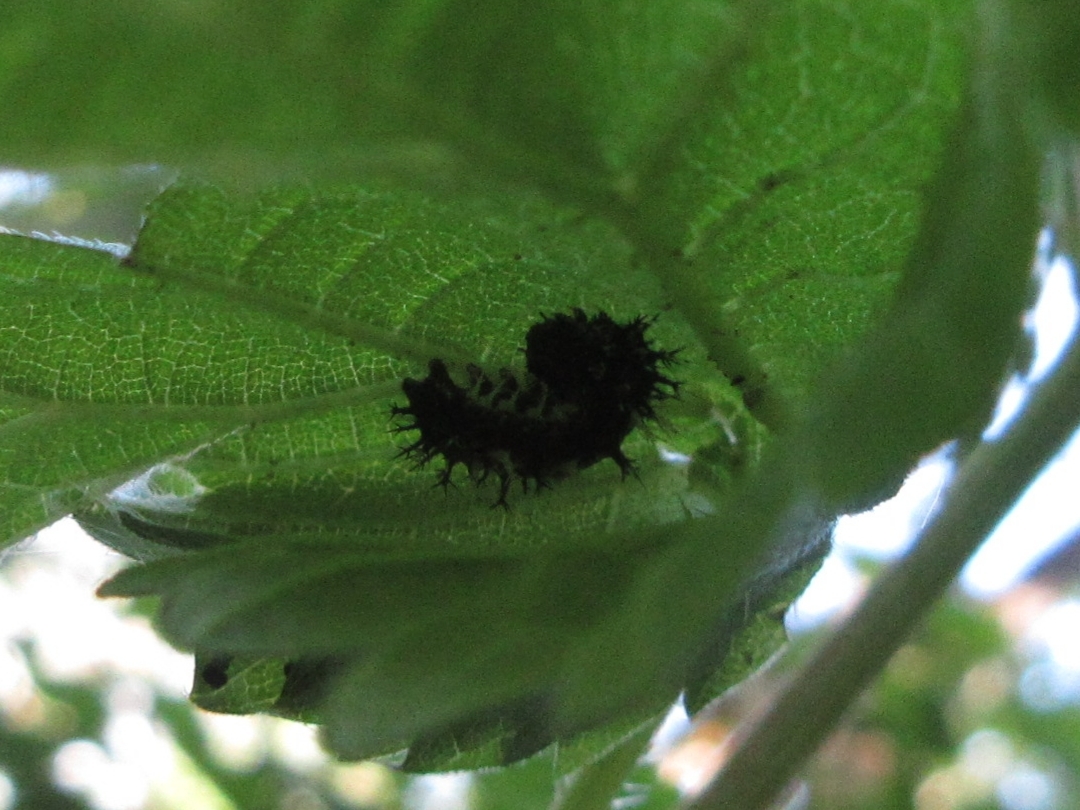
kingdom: Animalia
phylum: Arthropoda
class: Insecta
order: Lepidoptera
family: Nymphalidae
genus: Polygonia
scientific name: Polygonia satyrus
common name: Satyr angle wing
